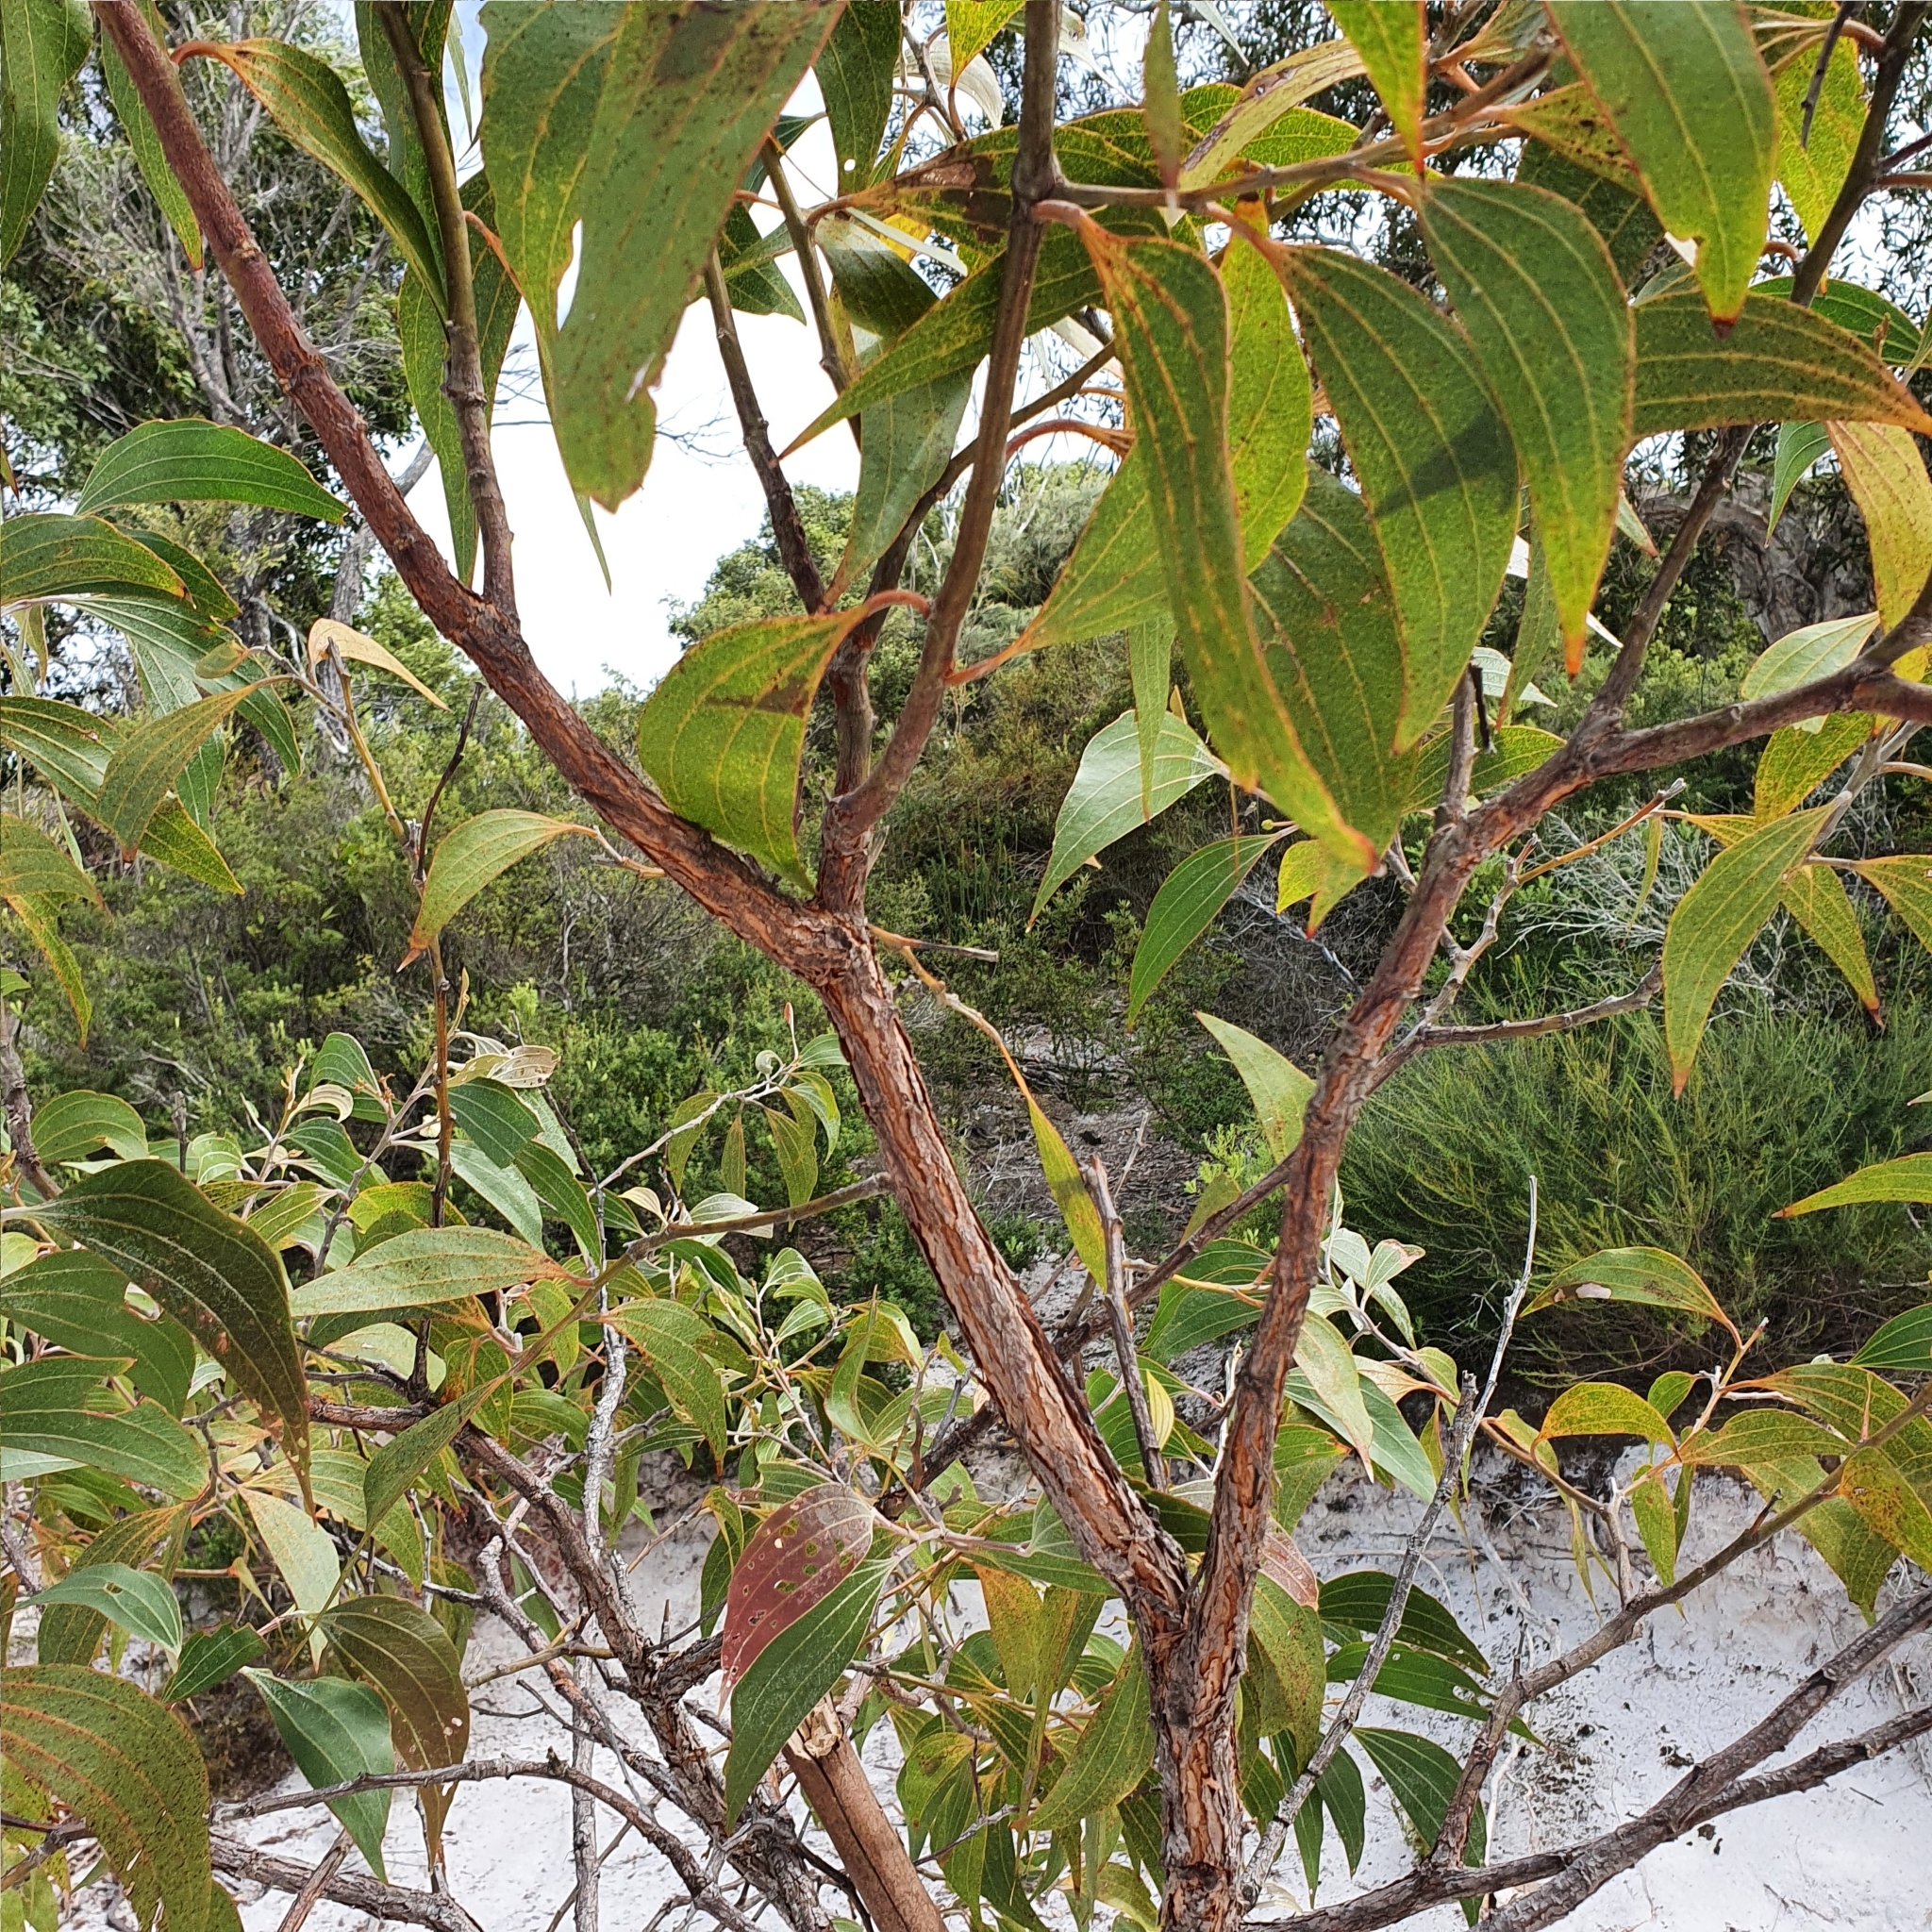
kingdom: Plantae
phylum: Tracheophyta
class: Magnoliopsida
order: Fabales
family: Fabaceae
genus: Acacia
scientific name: Acacia flavescens
